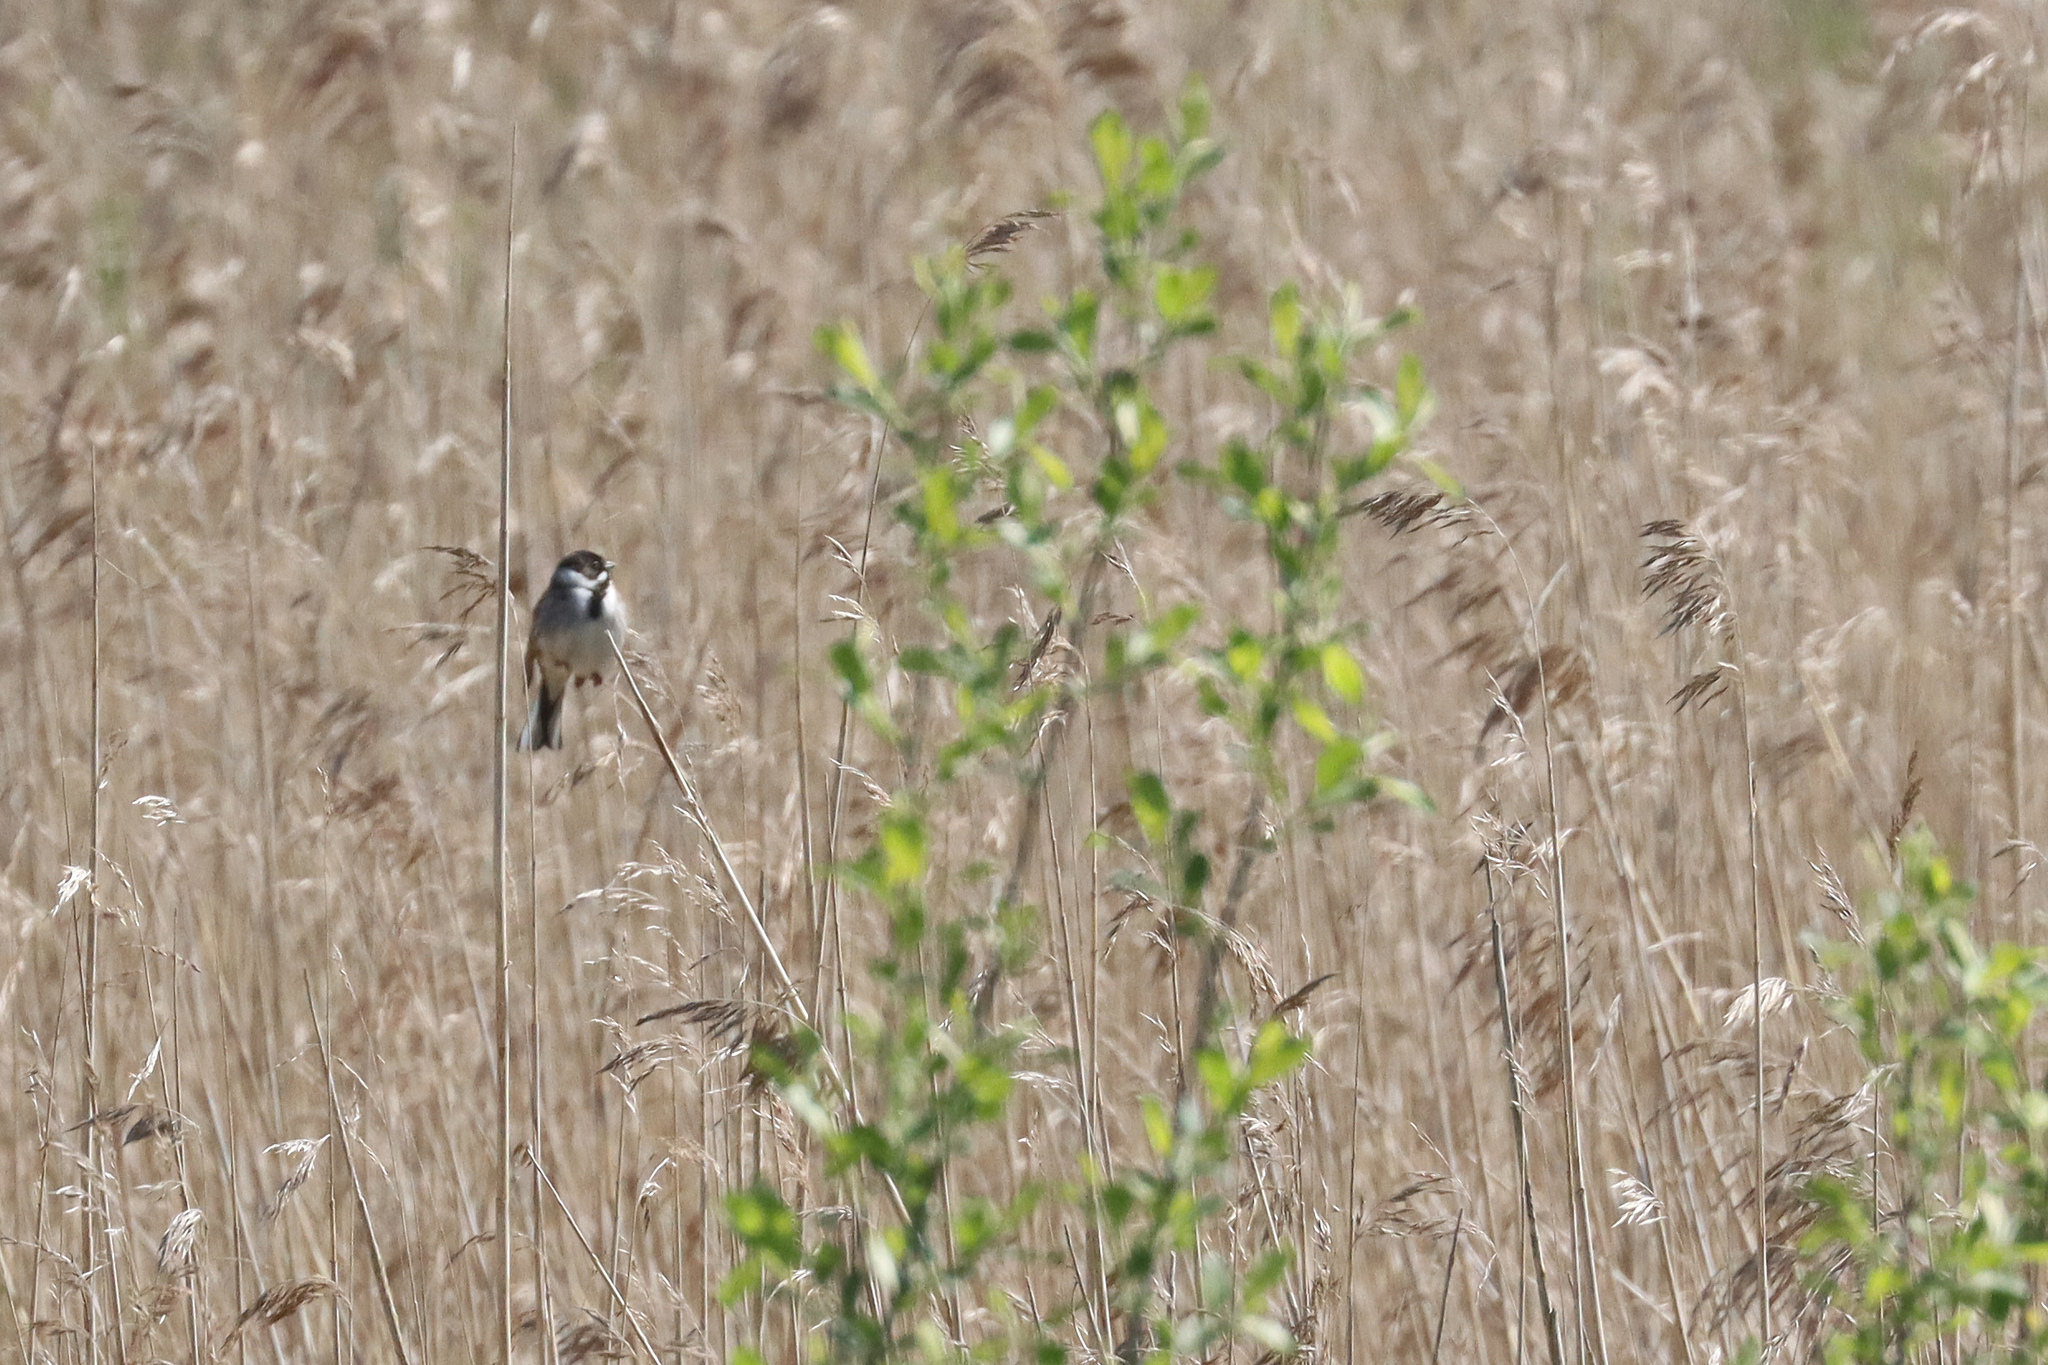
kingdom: Animalia
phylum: Chordata
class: Aves
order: Passeriformes
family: Emberizidae
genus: Emberiza
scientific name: Emberiza schoeniclus
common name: Reed bunting
